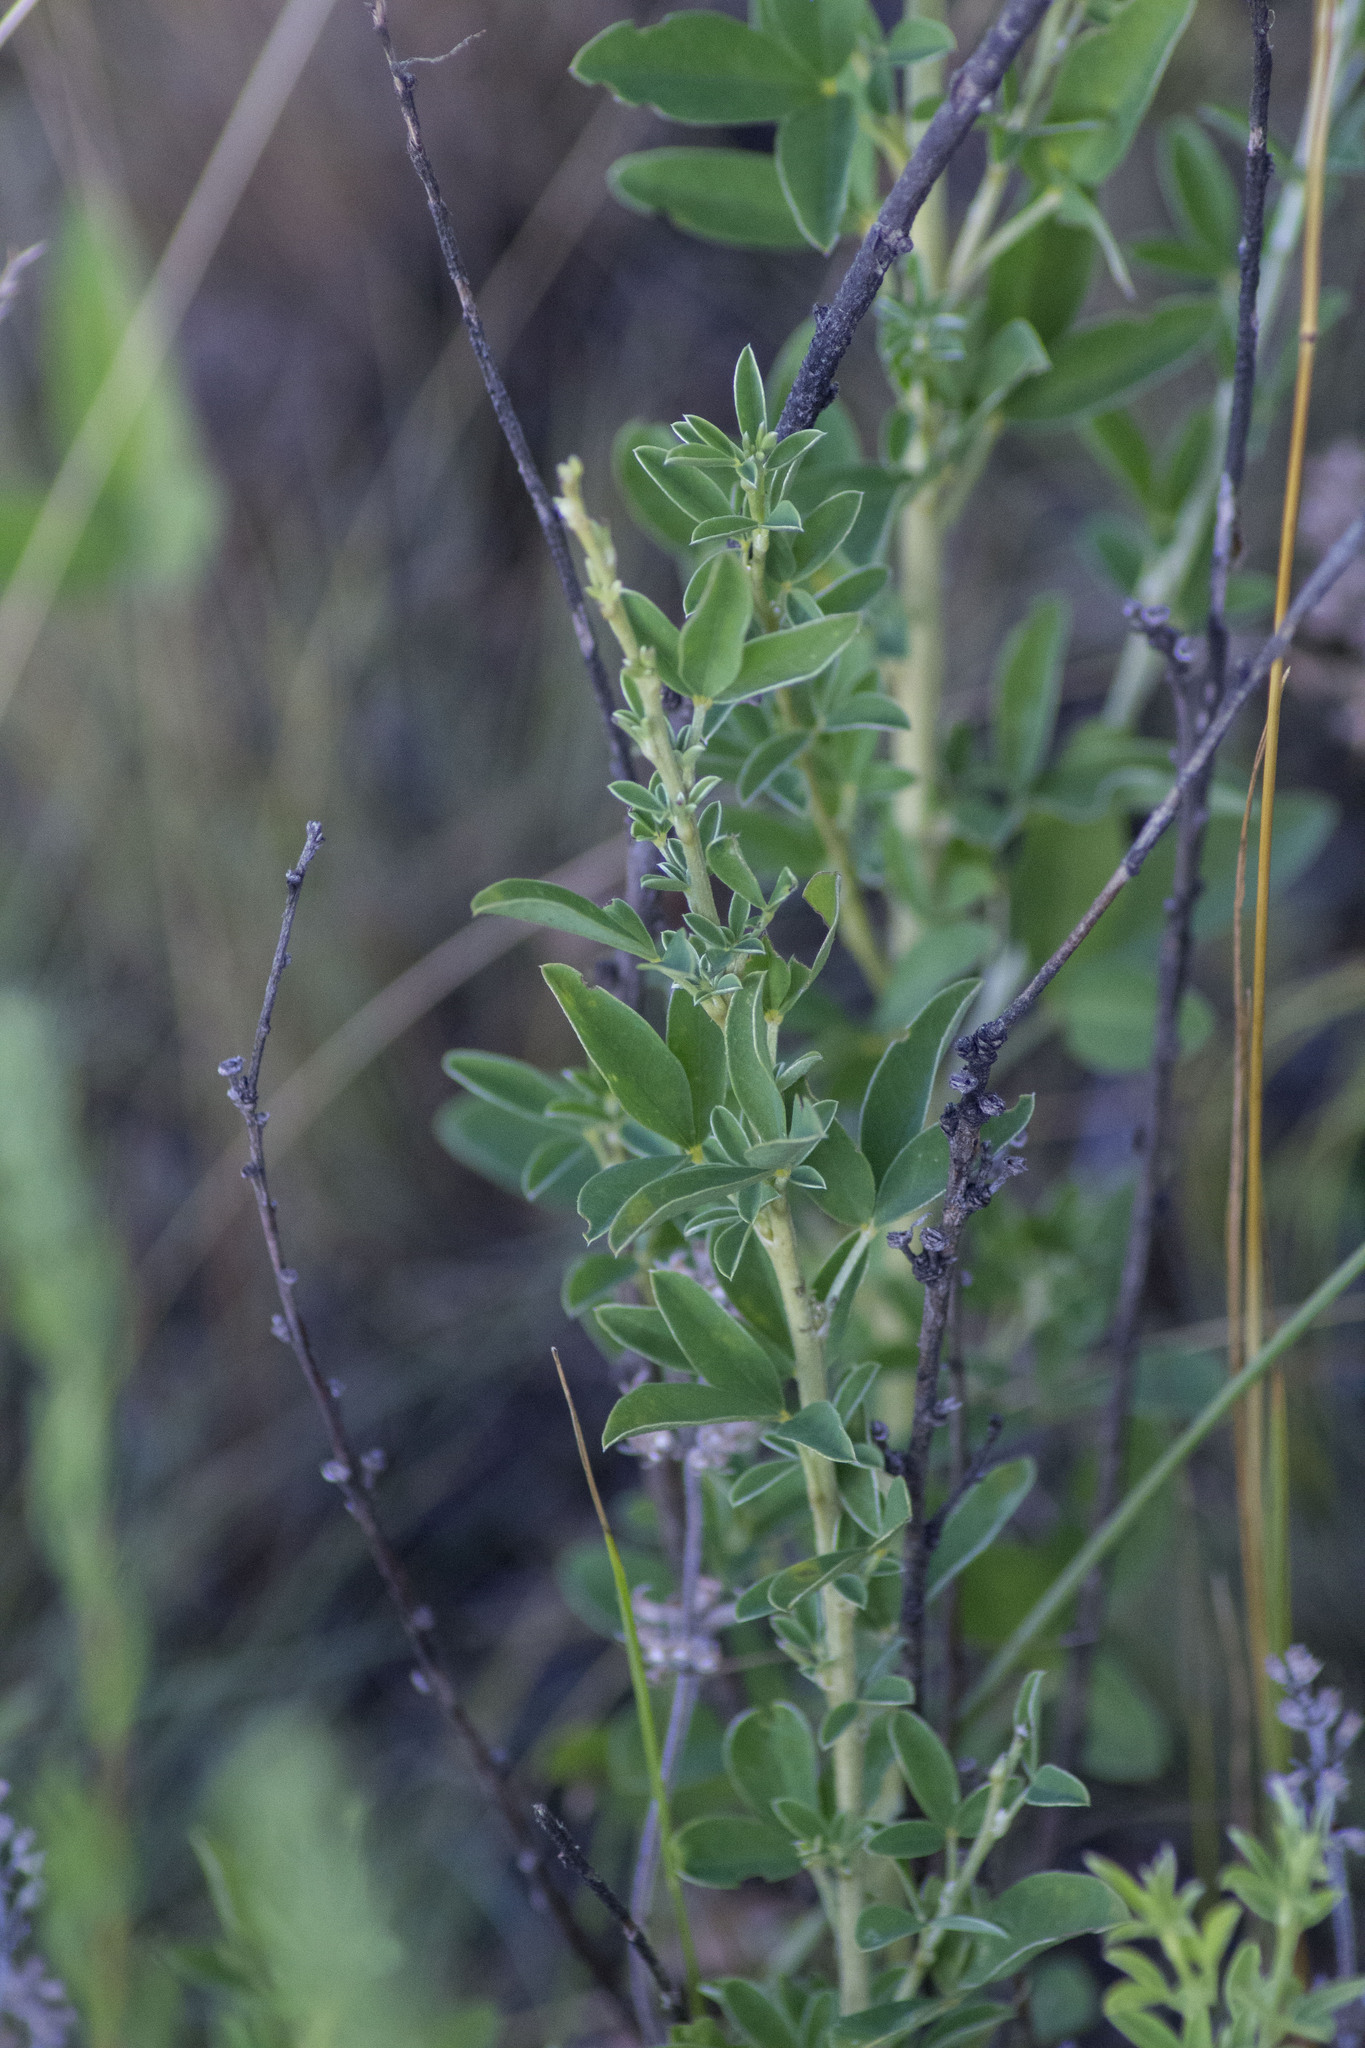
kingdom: Plantae
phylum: Tracheophyta
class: Magnoliopsida
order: Fabales
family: Fabaceae
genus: Chamaecytisus
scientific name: Chamaecytisus ruthenicus
